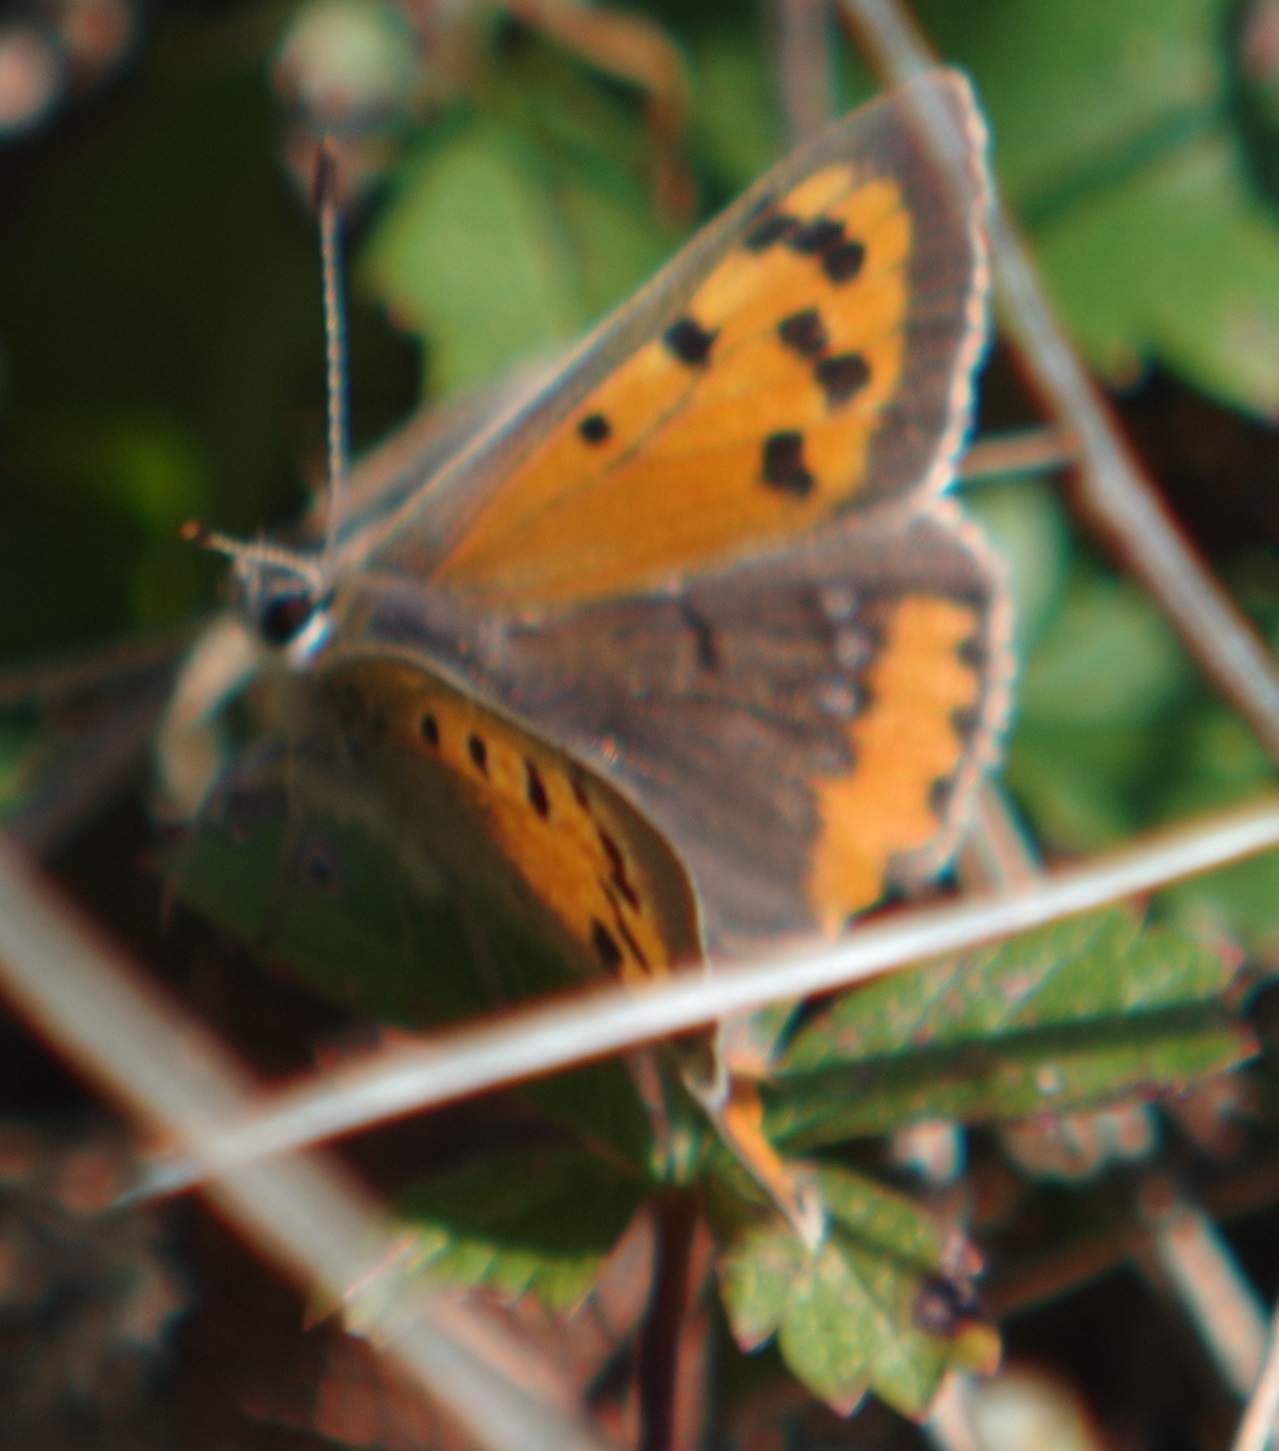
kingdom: Animalia
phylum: Arthropoda
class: Insecta
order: Lepidoptera
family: Lycaenidae
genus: Lycaena
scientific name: Lycaena phlaeas
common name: Small copper
